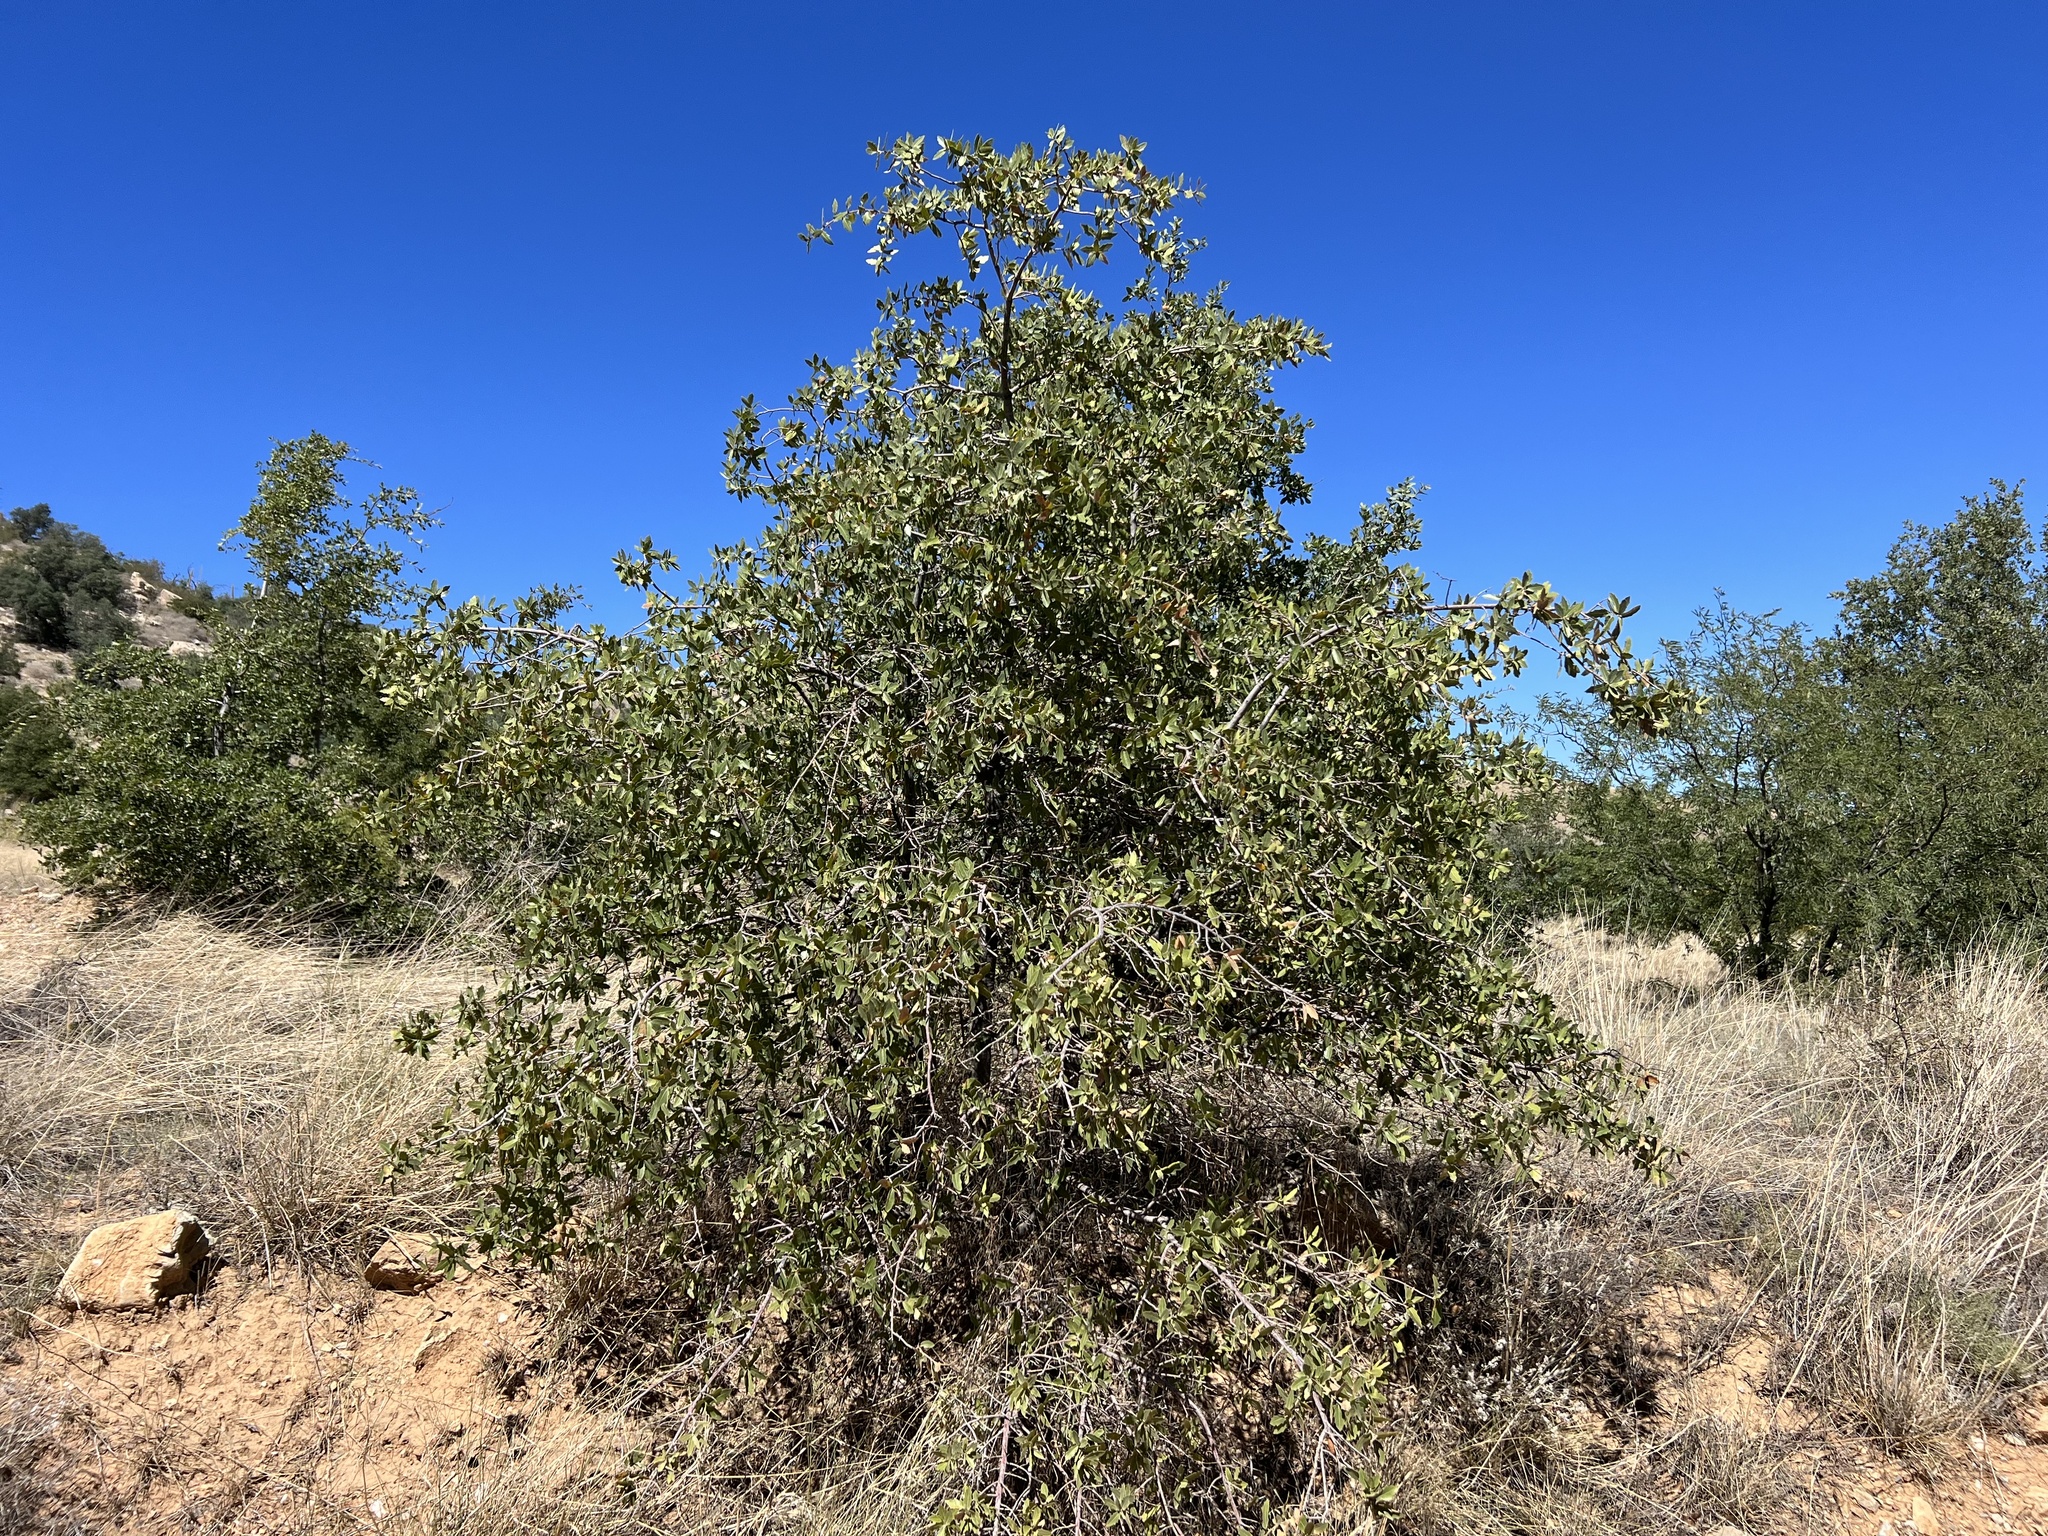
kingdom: Plantae
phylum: Tracheophyta
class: Magnoliopsida
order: Fagales
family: Fagaceae
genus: Quercus
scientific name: Quercus emoryi
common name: Emory oak
